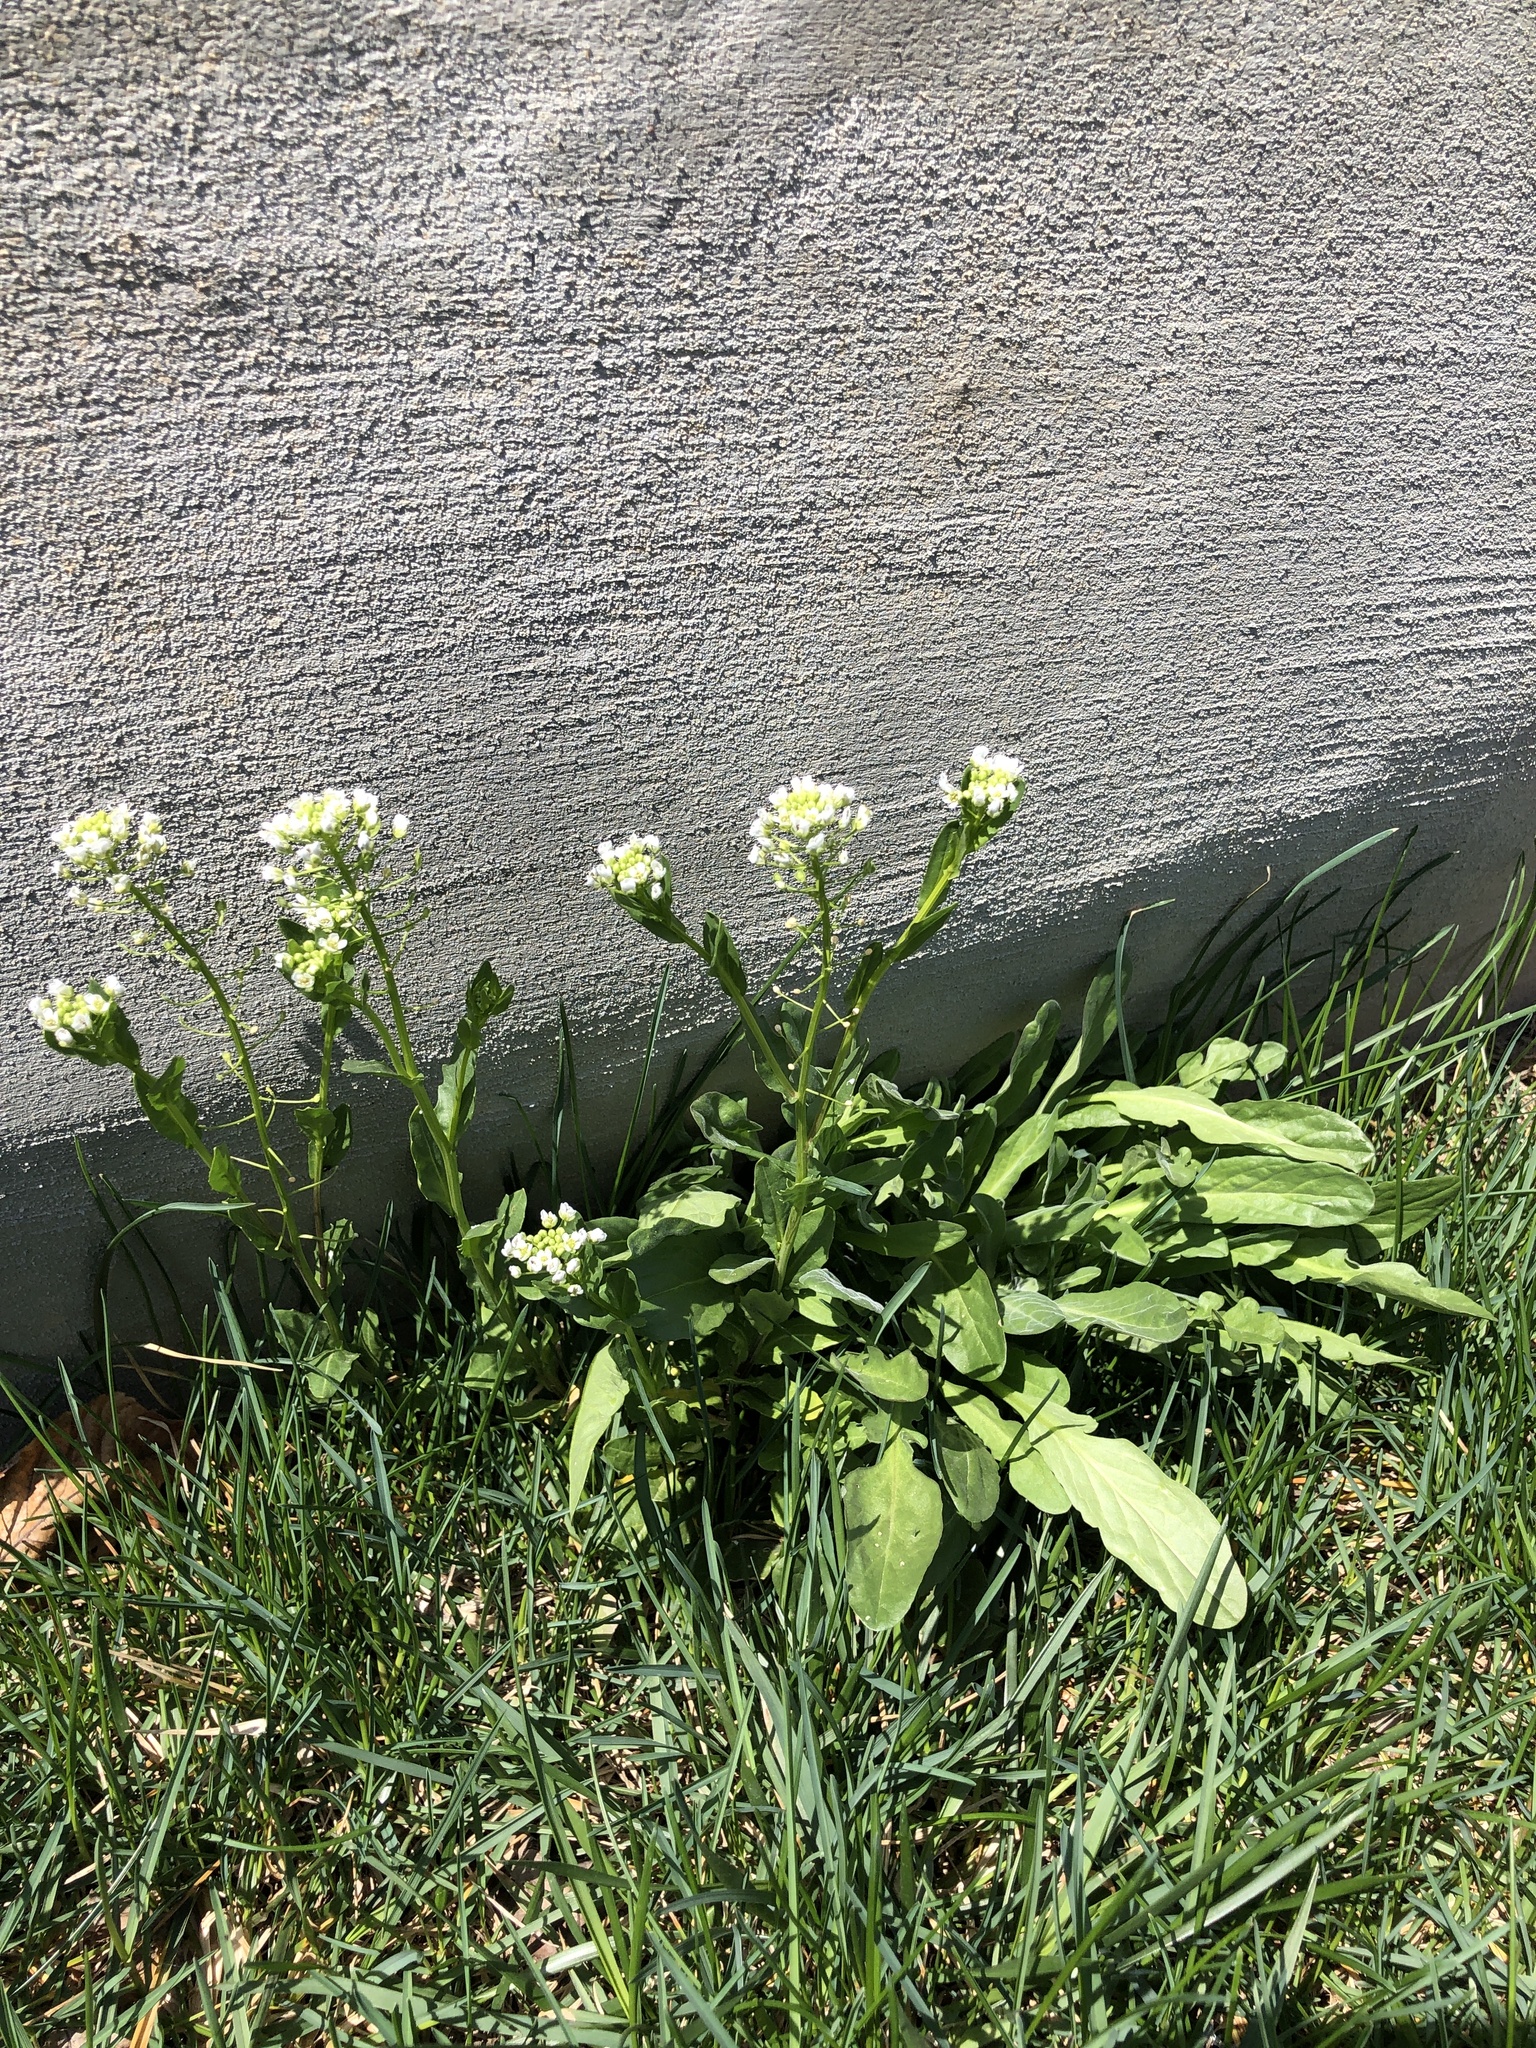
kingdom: Plantae
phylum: Tracheophyta
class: Magnoliopsida
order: Brassicales
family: Brassicaceae
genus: Thlaspi
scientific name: Thlaspi arvense
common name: Field pennycress
